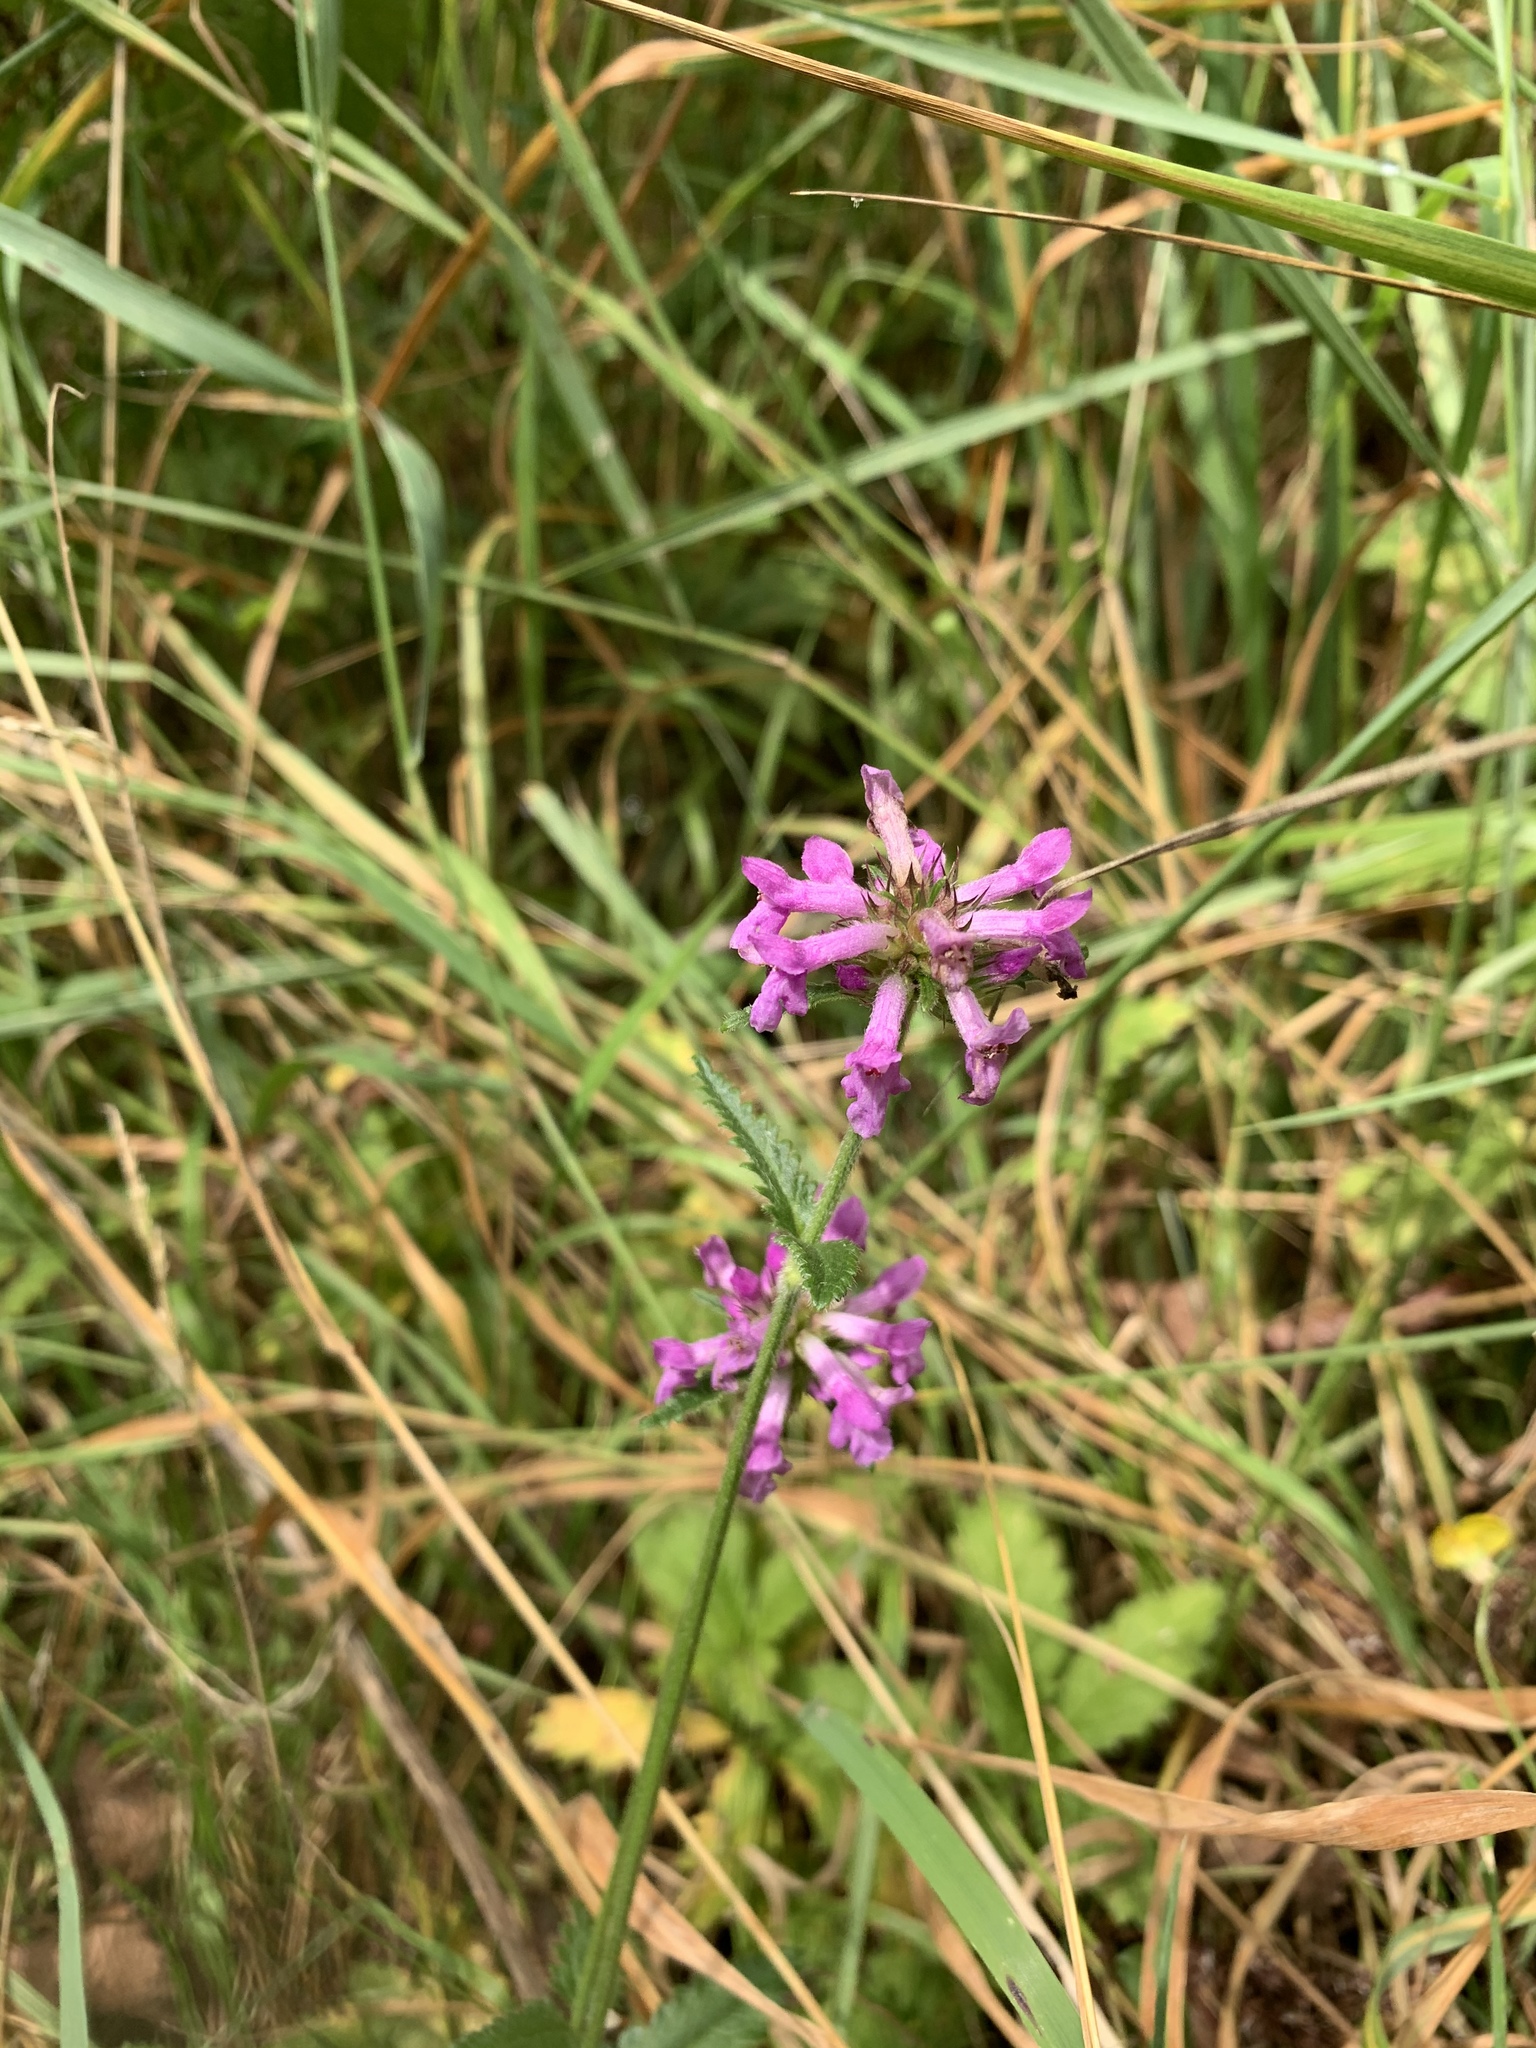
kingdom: Plantae
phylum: Tracheophyta
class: Magnoliopsida
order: Lamiales
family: Lamiaceae
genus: Betonica
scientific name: Betonica officinalis
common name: Bishop's-wort
